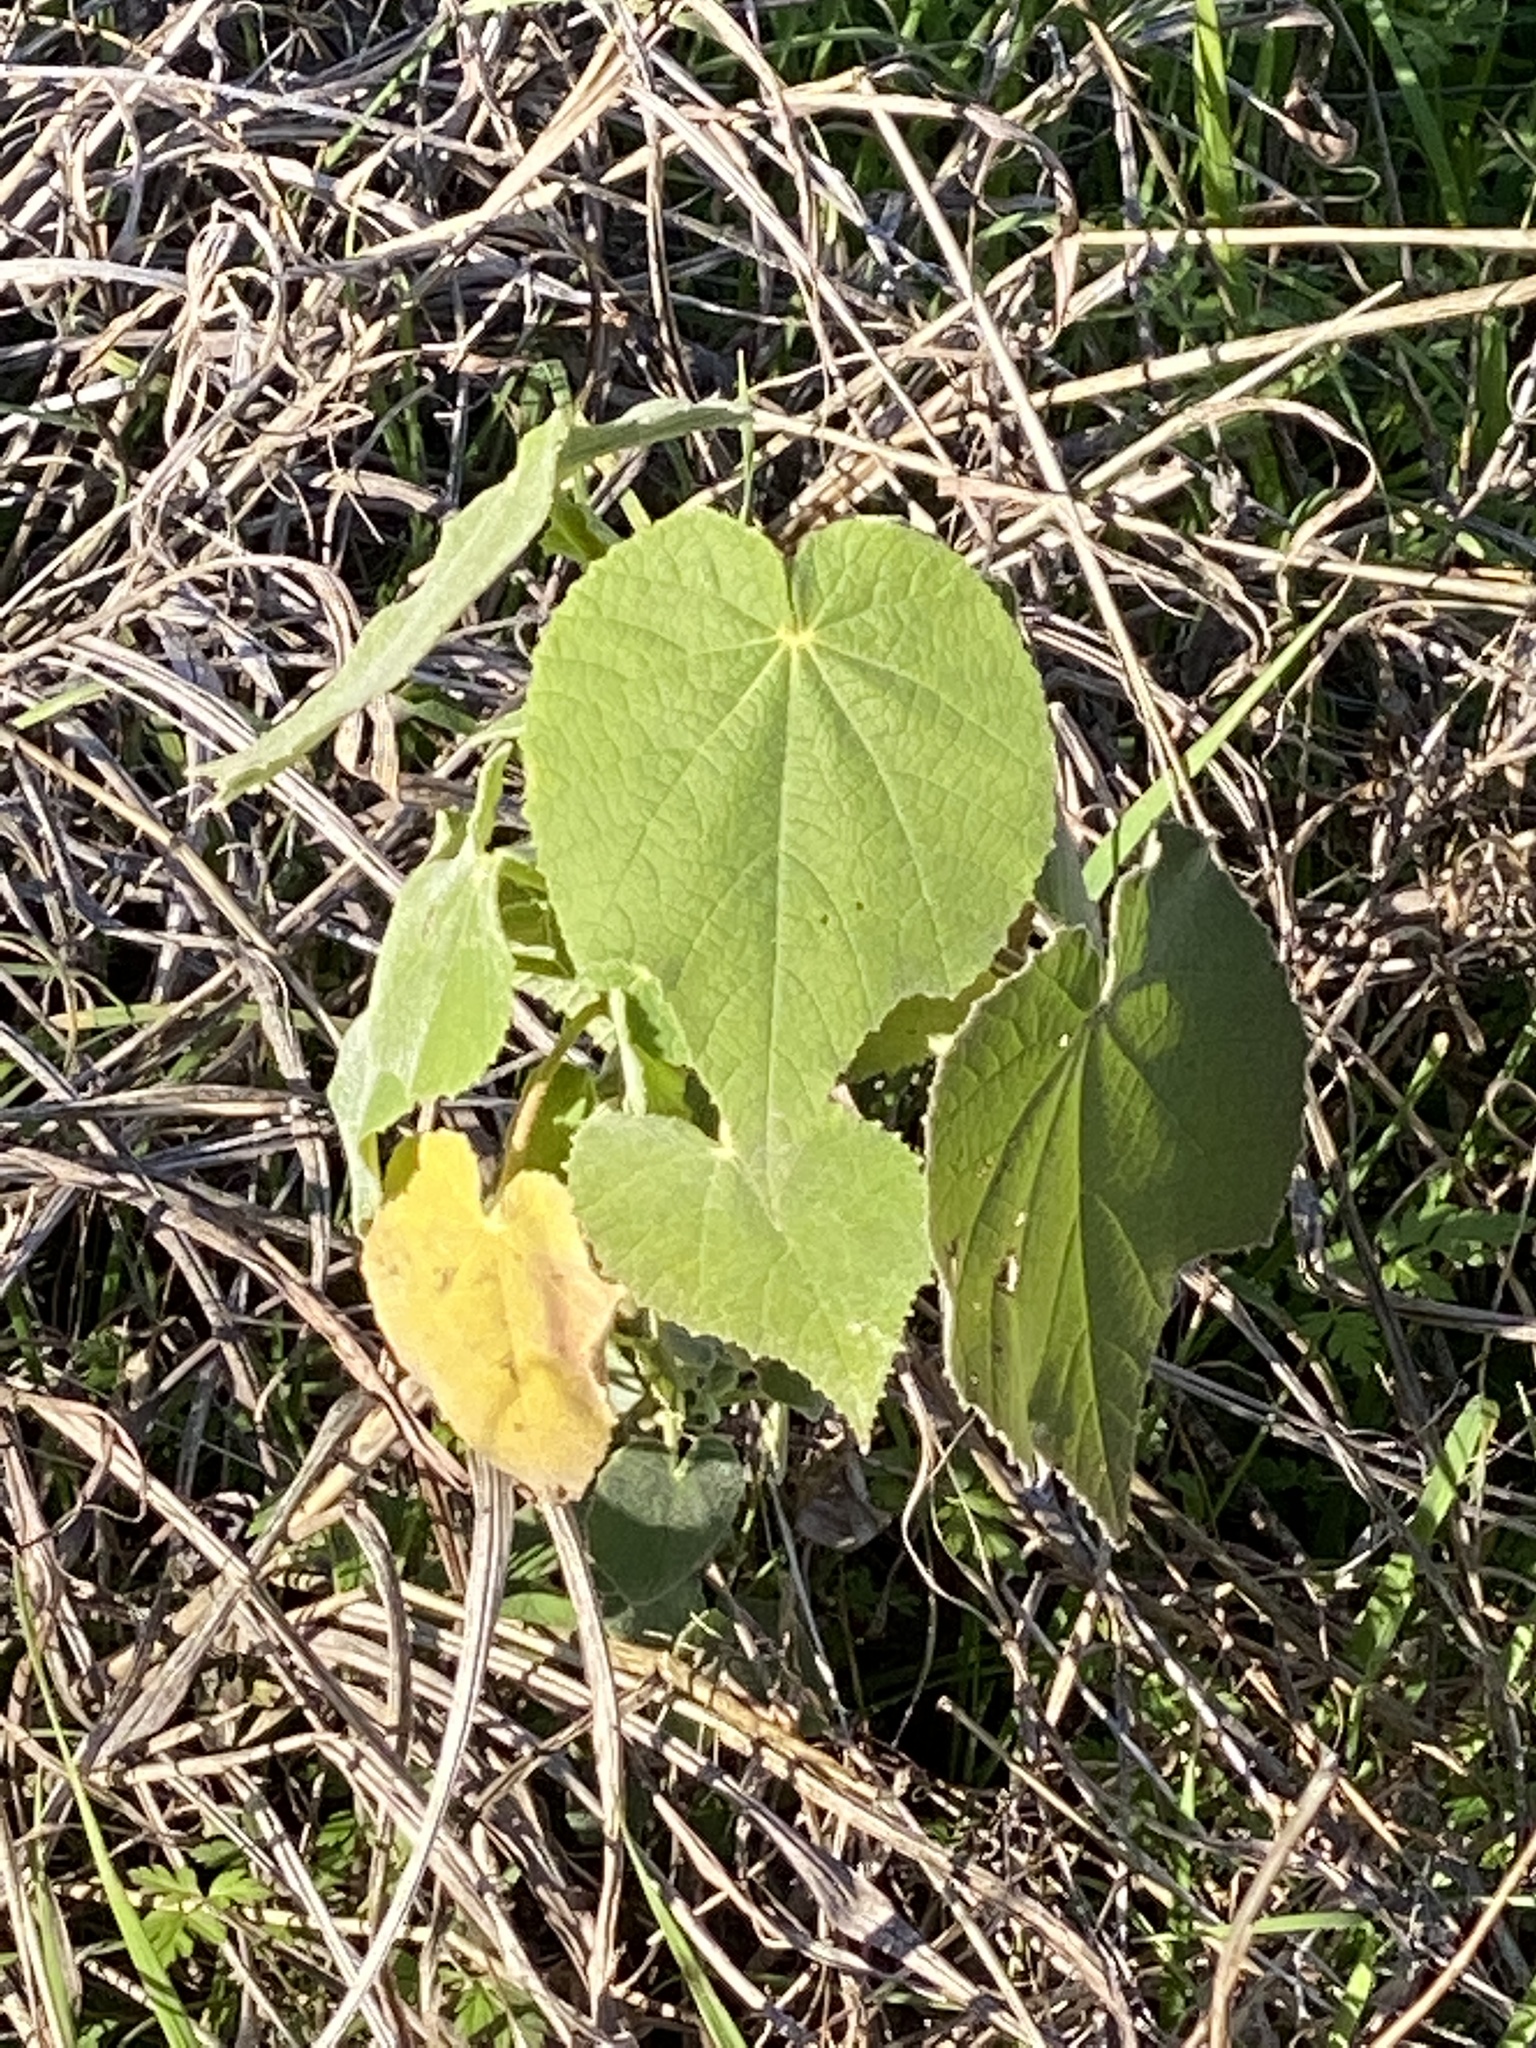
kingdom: Plantae
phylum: Tracheophyta
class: Magnoliopsida
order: Malvales
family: Malvaceae
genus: Allowissadula
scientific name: Allowissadula holosericea
